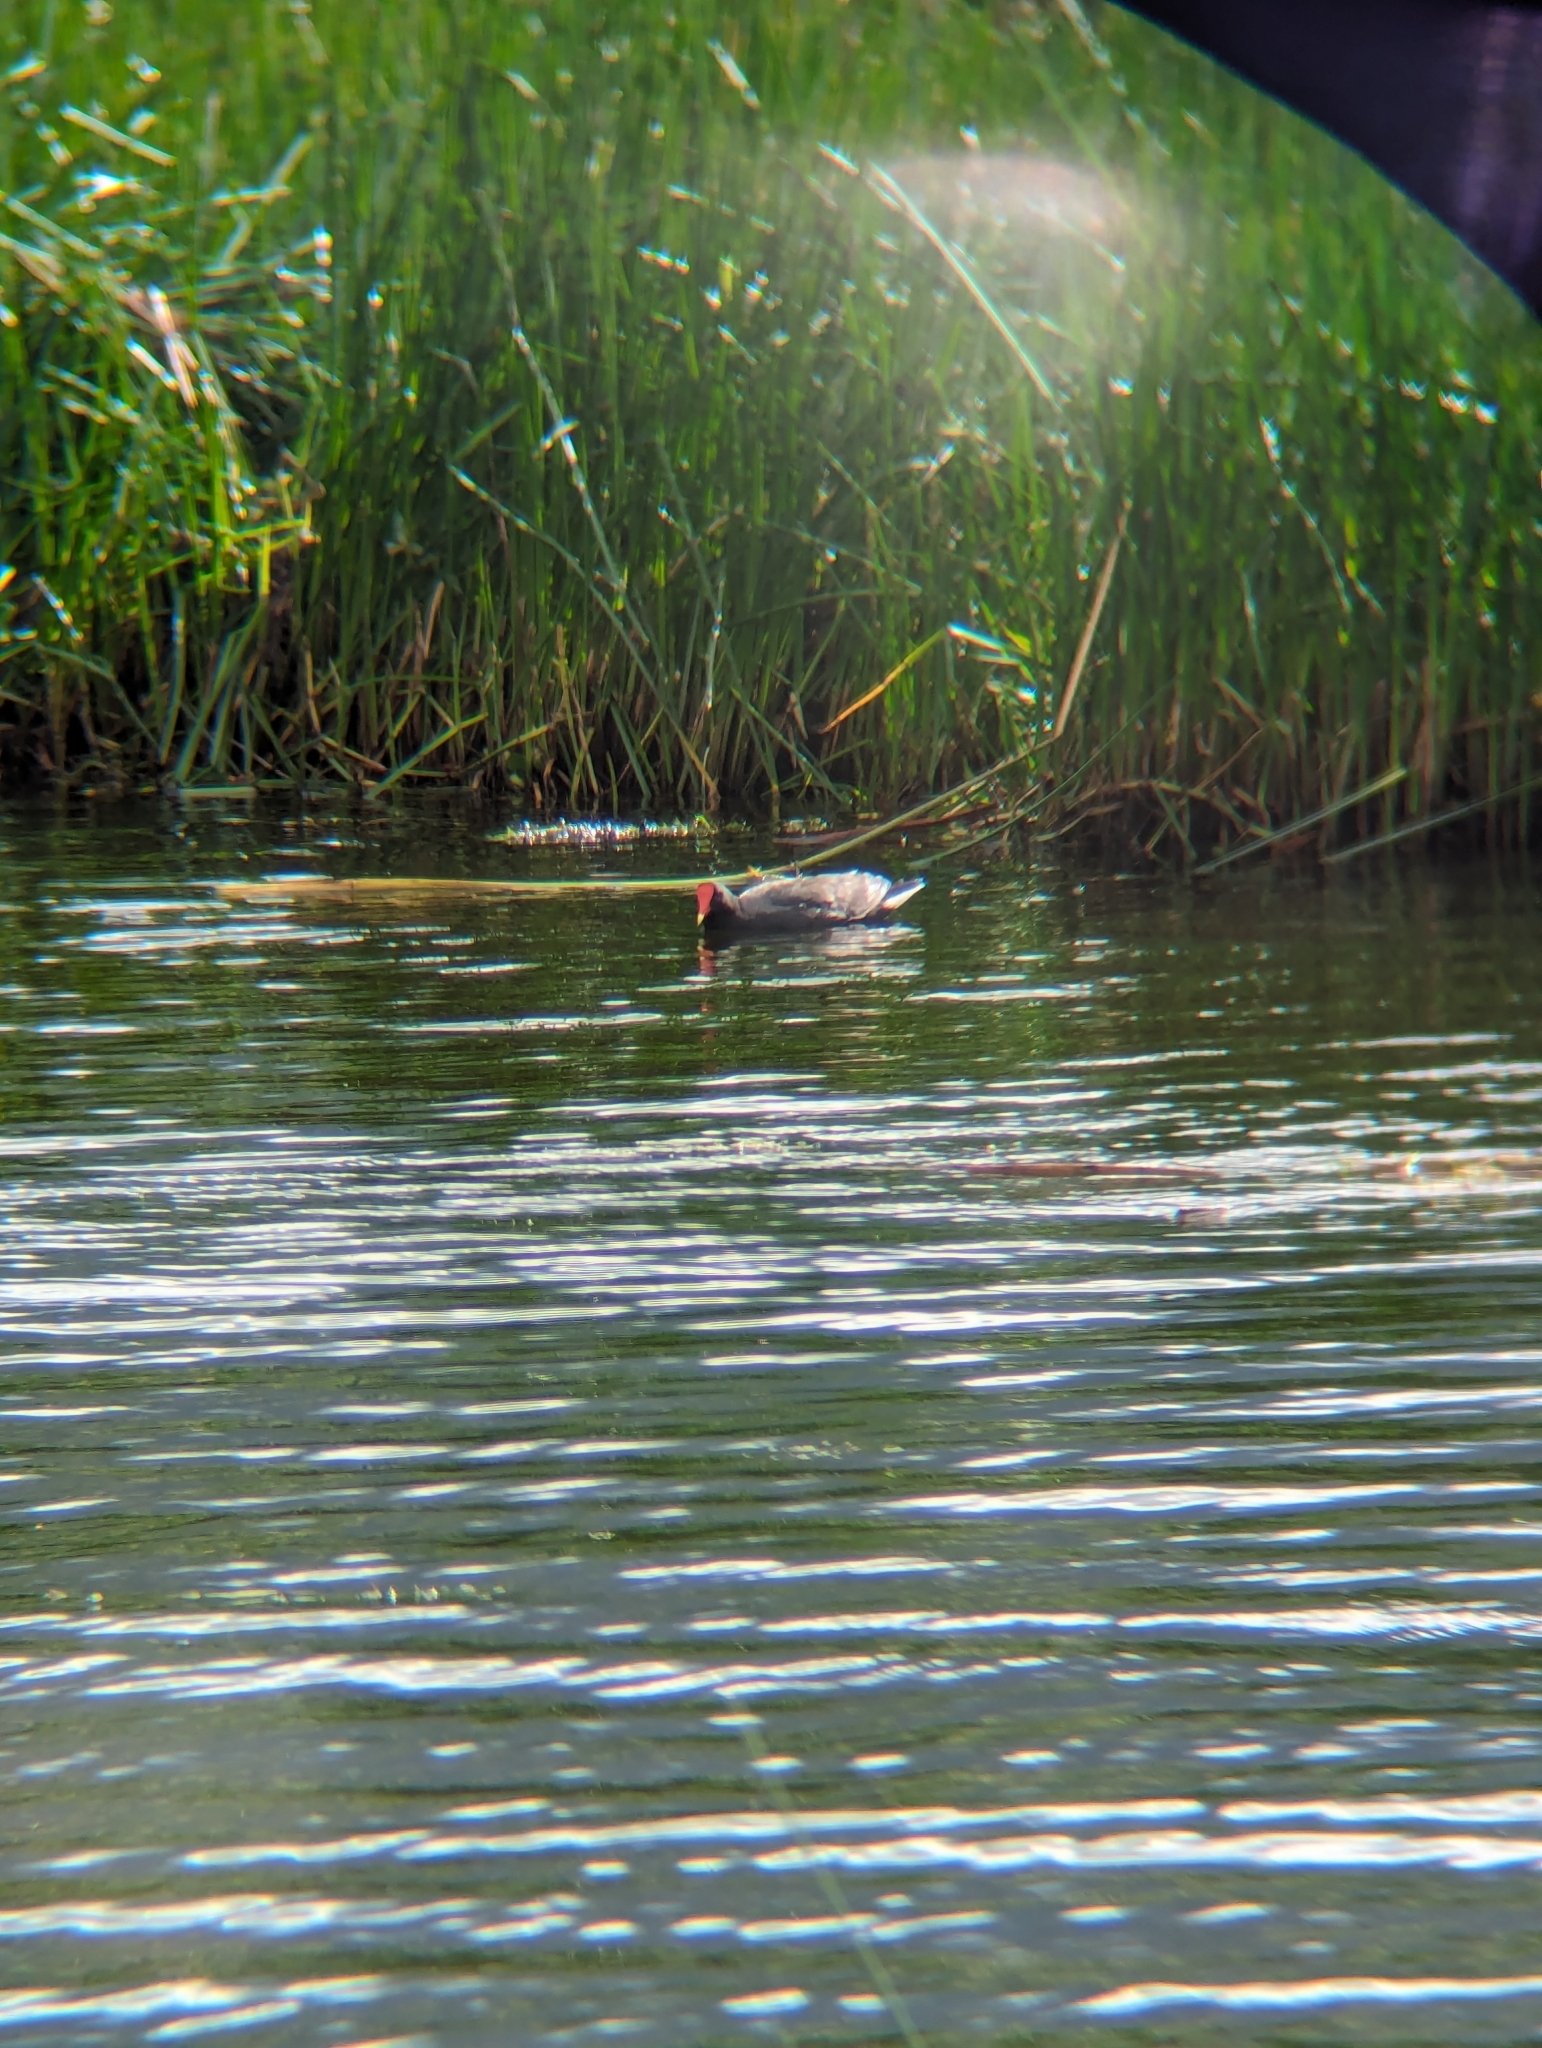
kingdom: Animalia
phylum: Chordata
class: Aves
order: Gruiformes
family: Rallidae
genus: Gallinula
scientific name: Gallinula chloropus
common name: Common moorhen
